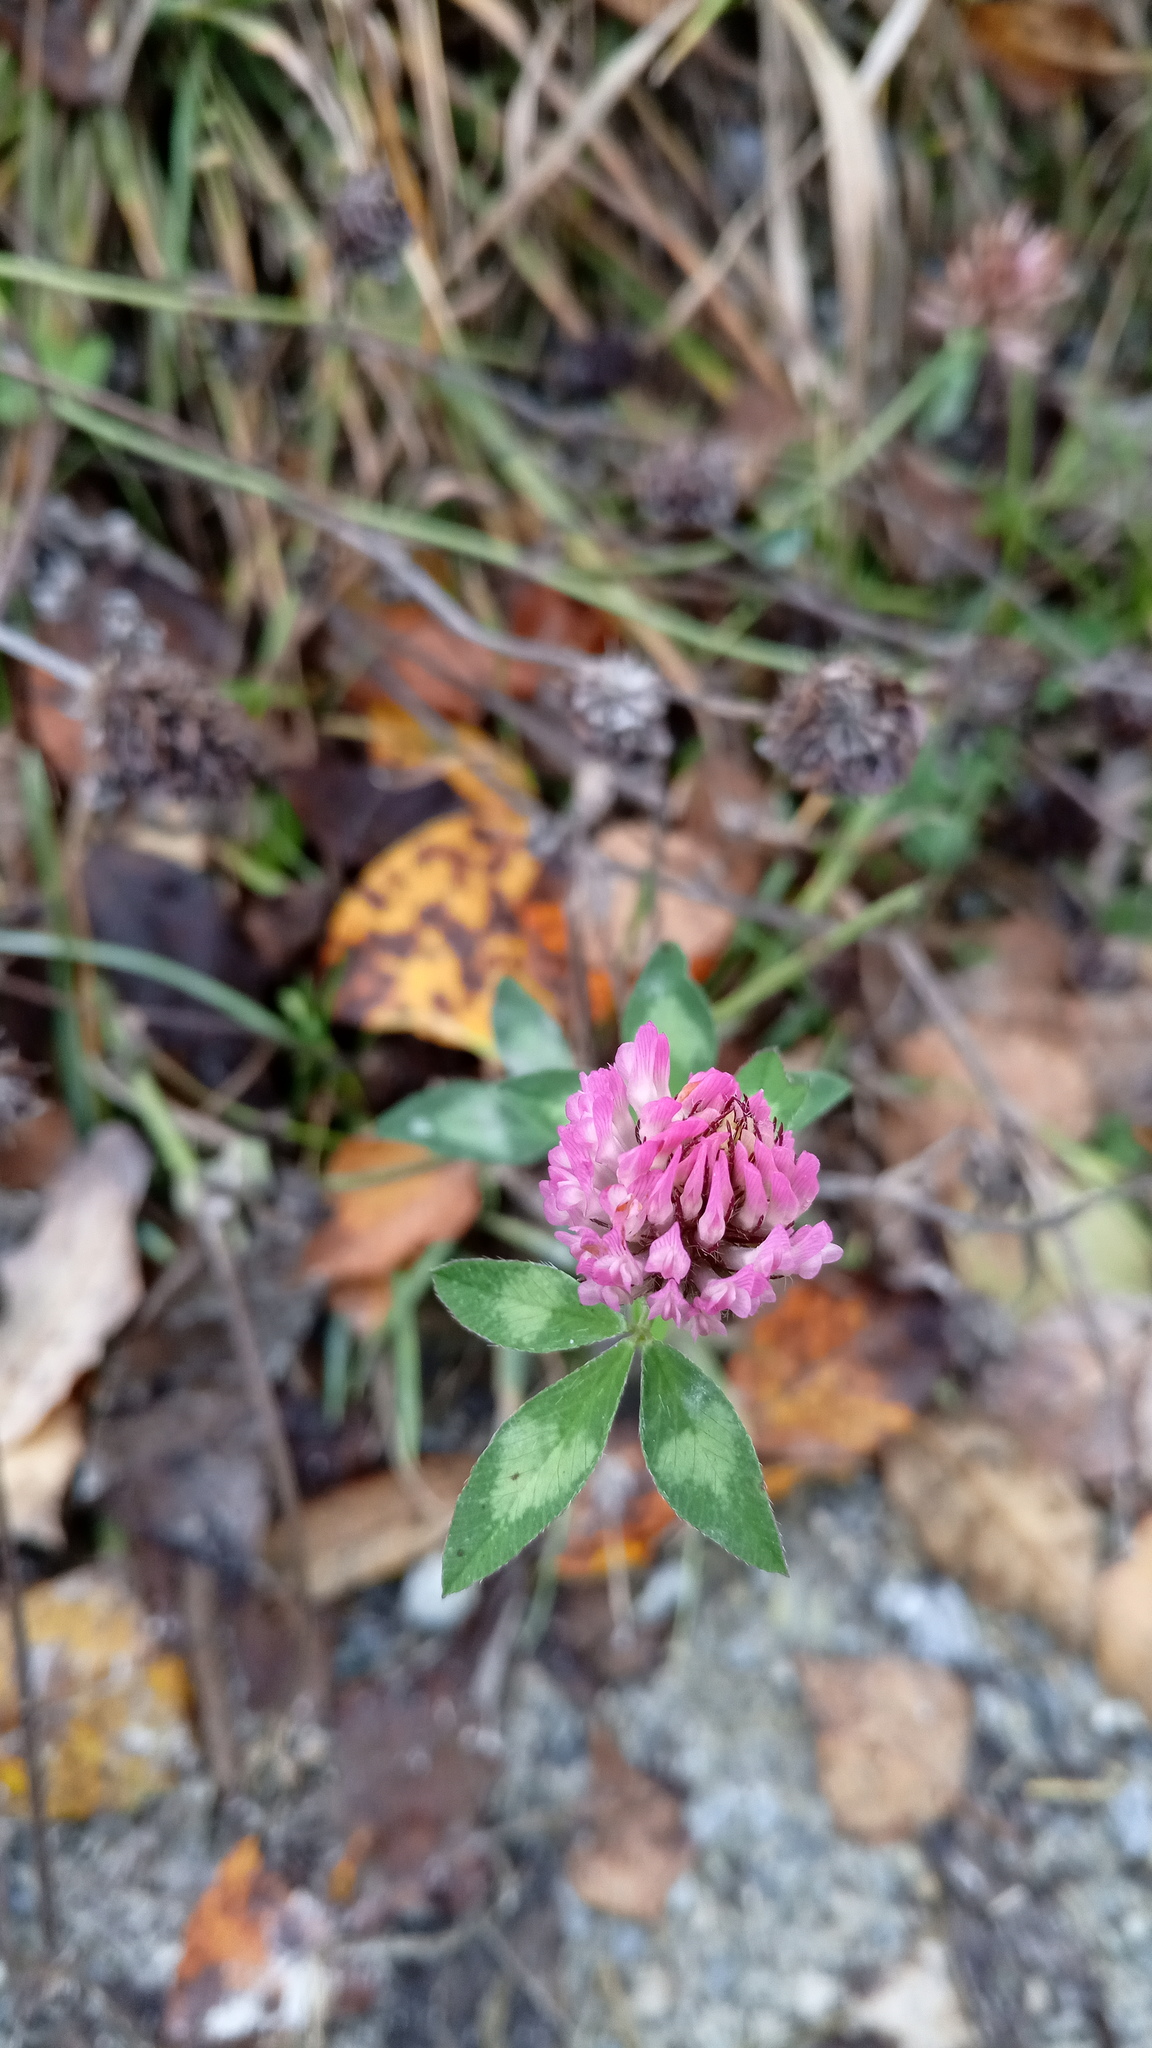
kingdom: Plantae
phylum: Tracheophyta
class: Magnoliopsida
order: Fabales
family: Fabaceae
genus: Trifolium
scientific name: Trifolium pratense
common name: Red clover
